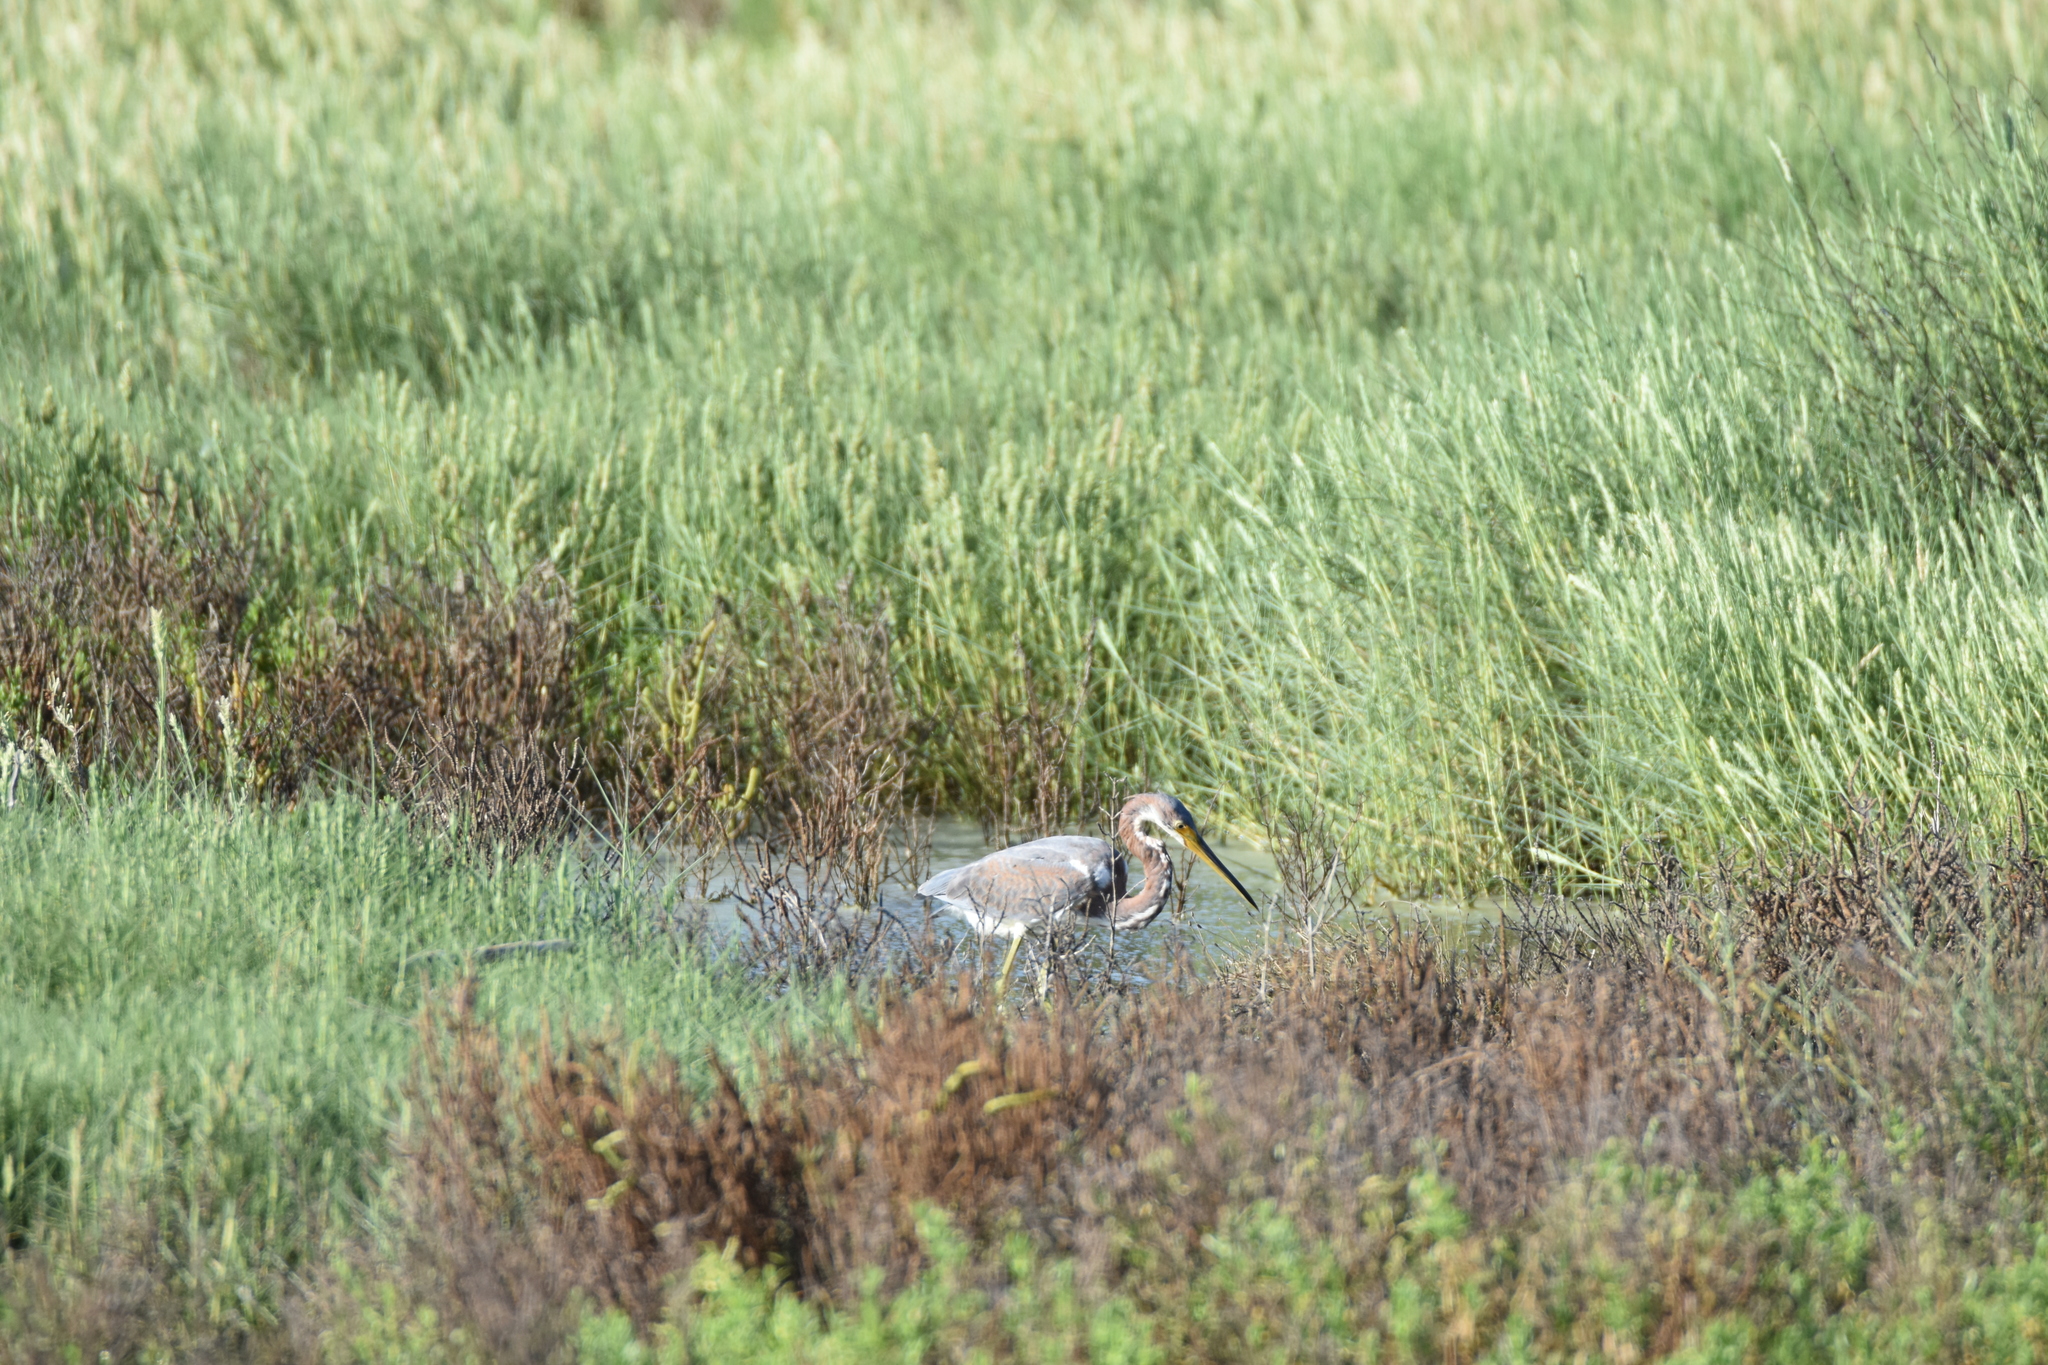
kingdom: Animalia
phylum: Chordata
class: Aves
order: Pelecaniformes
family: Ardeidae
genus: Egretta
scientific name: Egretta tricolor
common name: Tricolored heron
